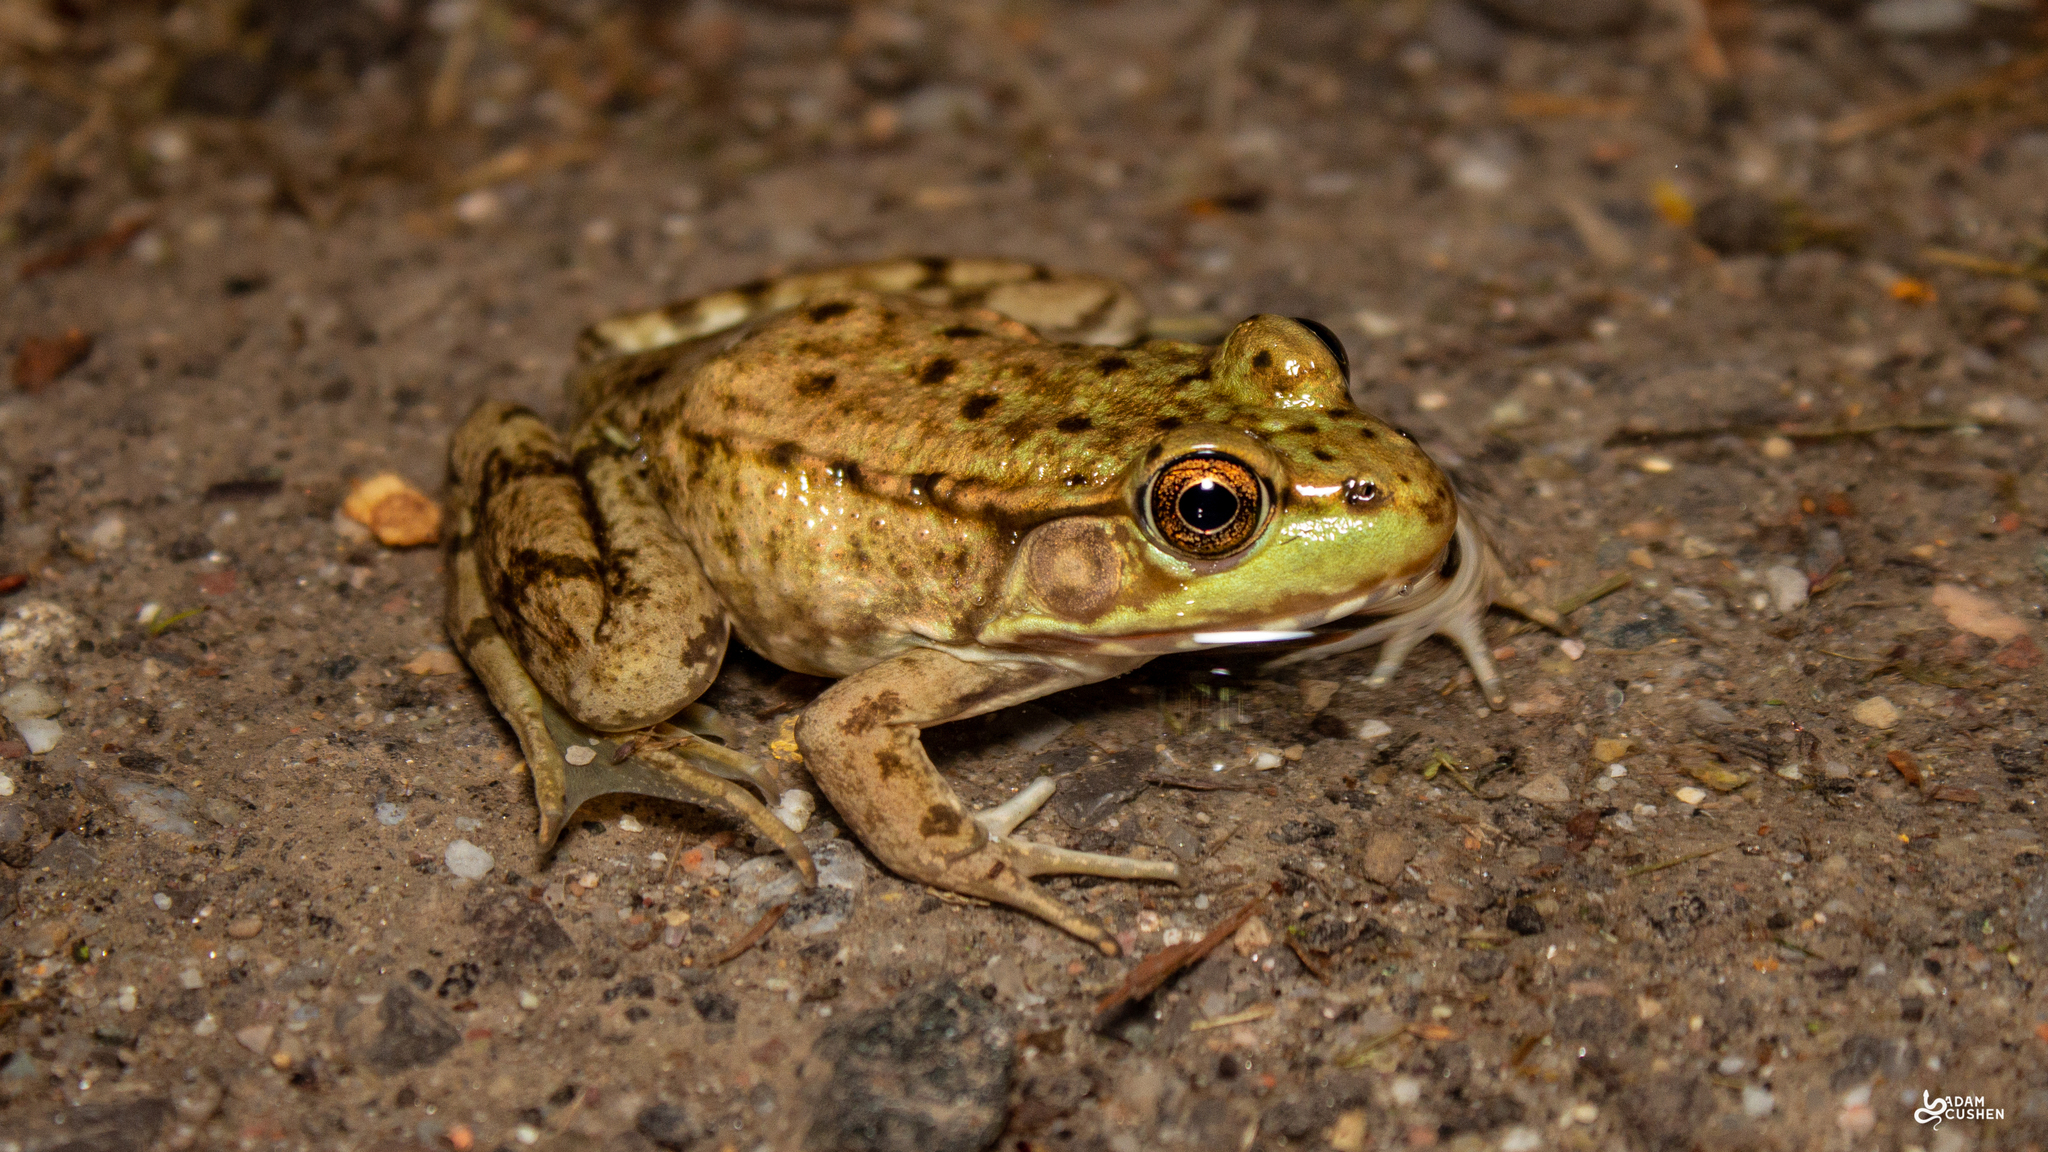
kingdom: Animalia
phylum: Chordata
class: Amphibia
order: Anura
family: Ranidae
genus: Lithobates
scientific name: Lithobates clamitans
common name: Green frog
